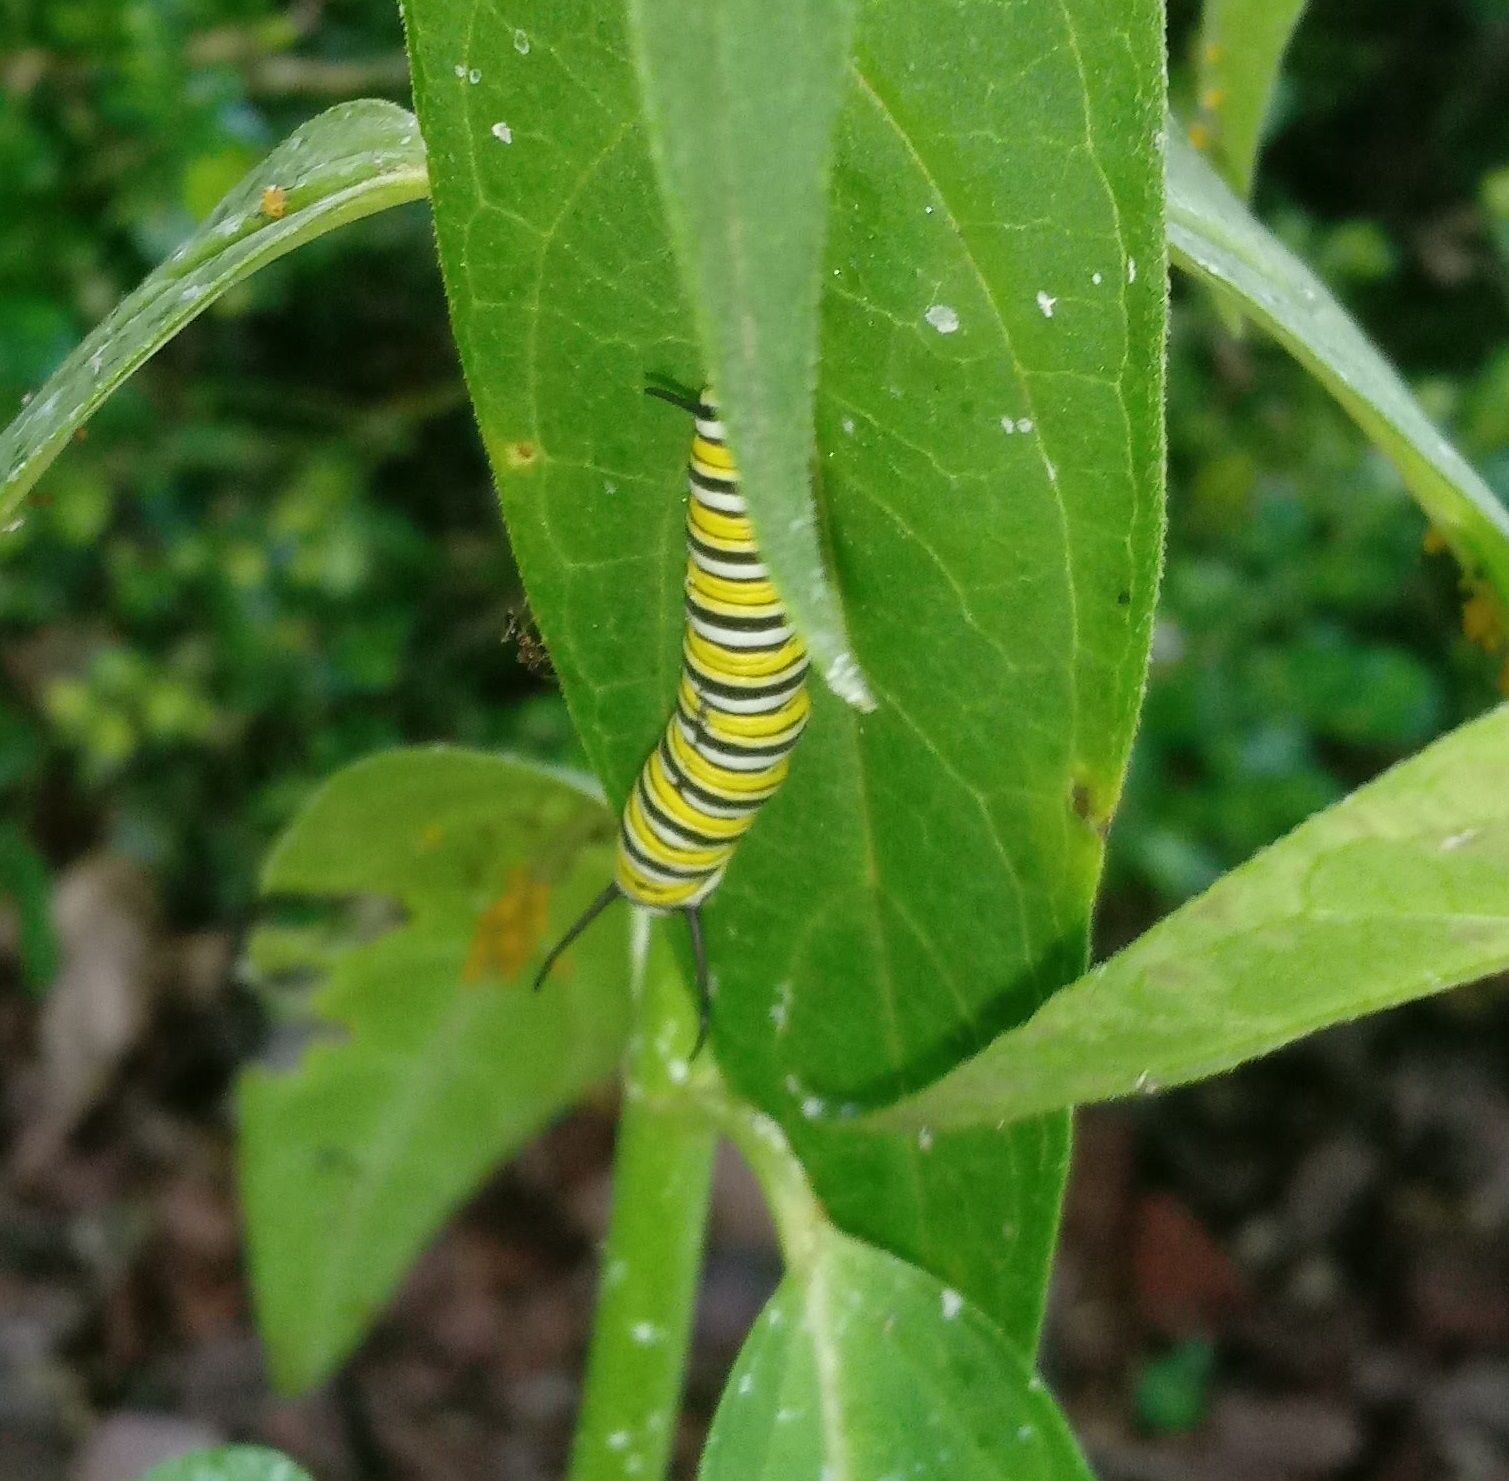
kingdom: Animalia
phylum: Arthropoda
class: Insecta
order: Lepidoptera
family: Nymphalidae
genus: Danaus
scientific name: Danaus plexippus
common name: Monarch
